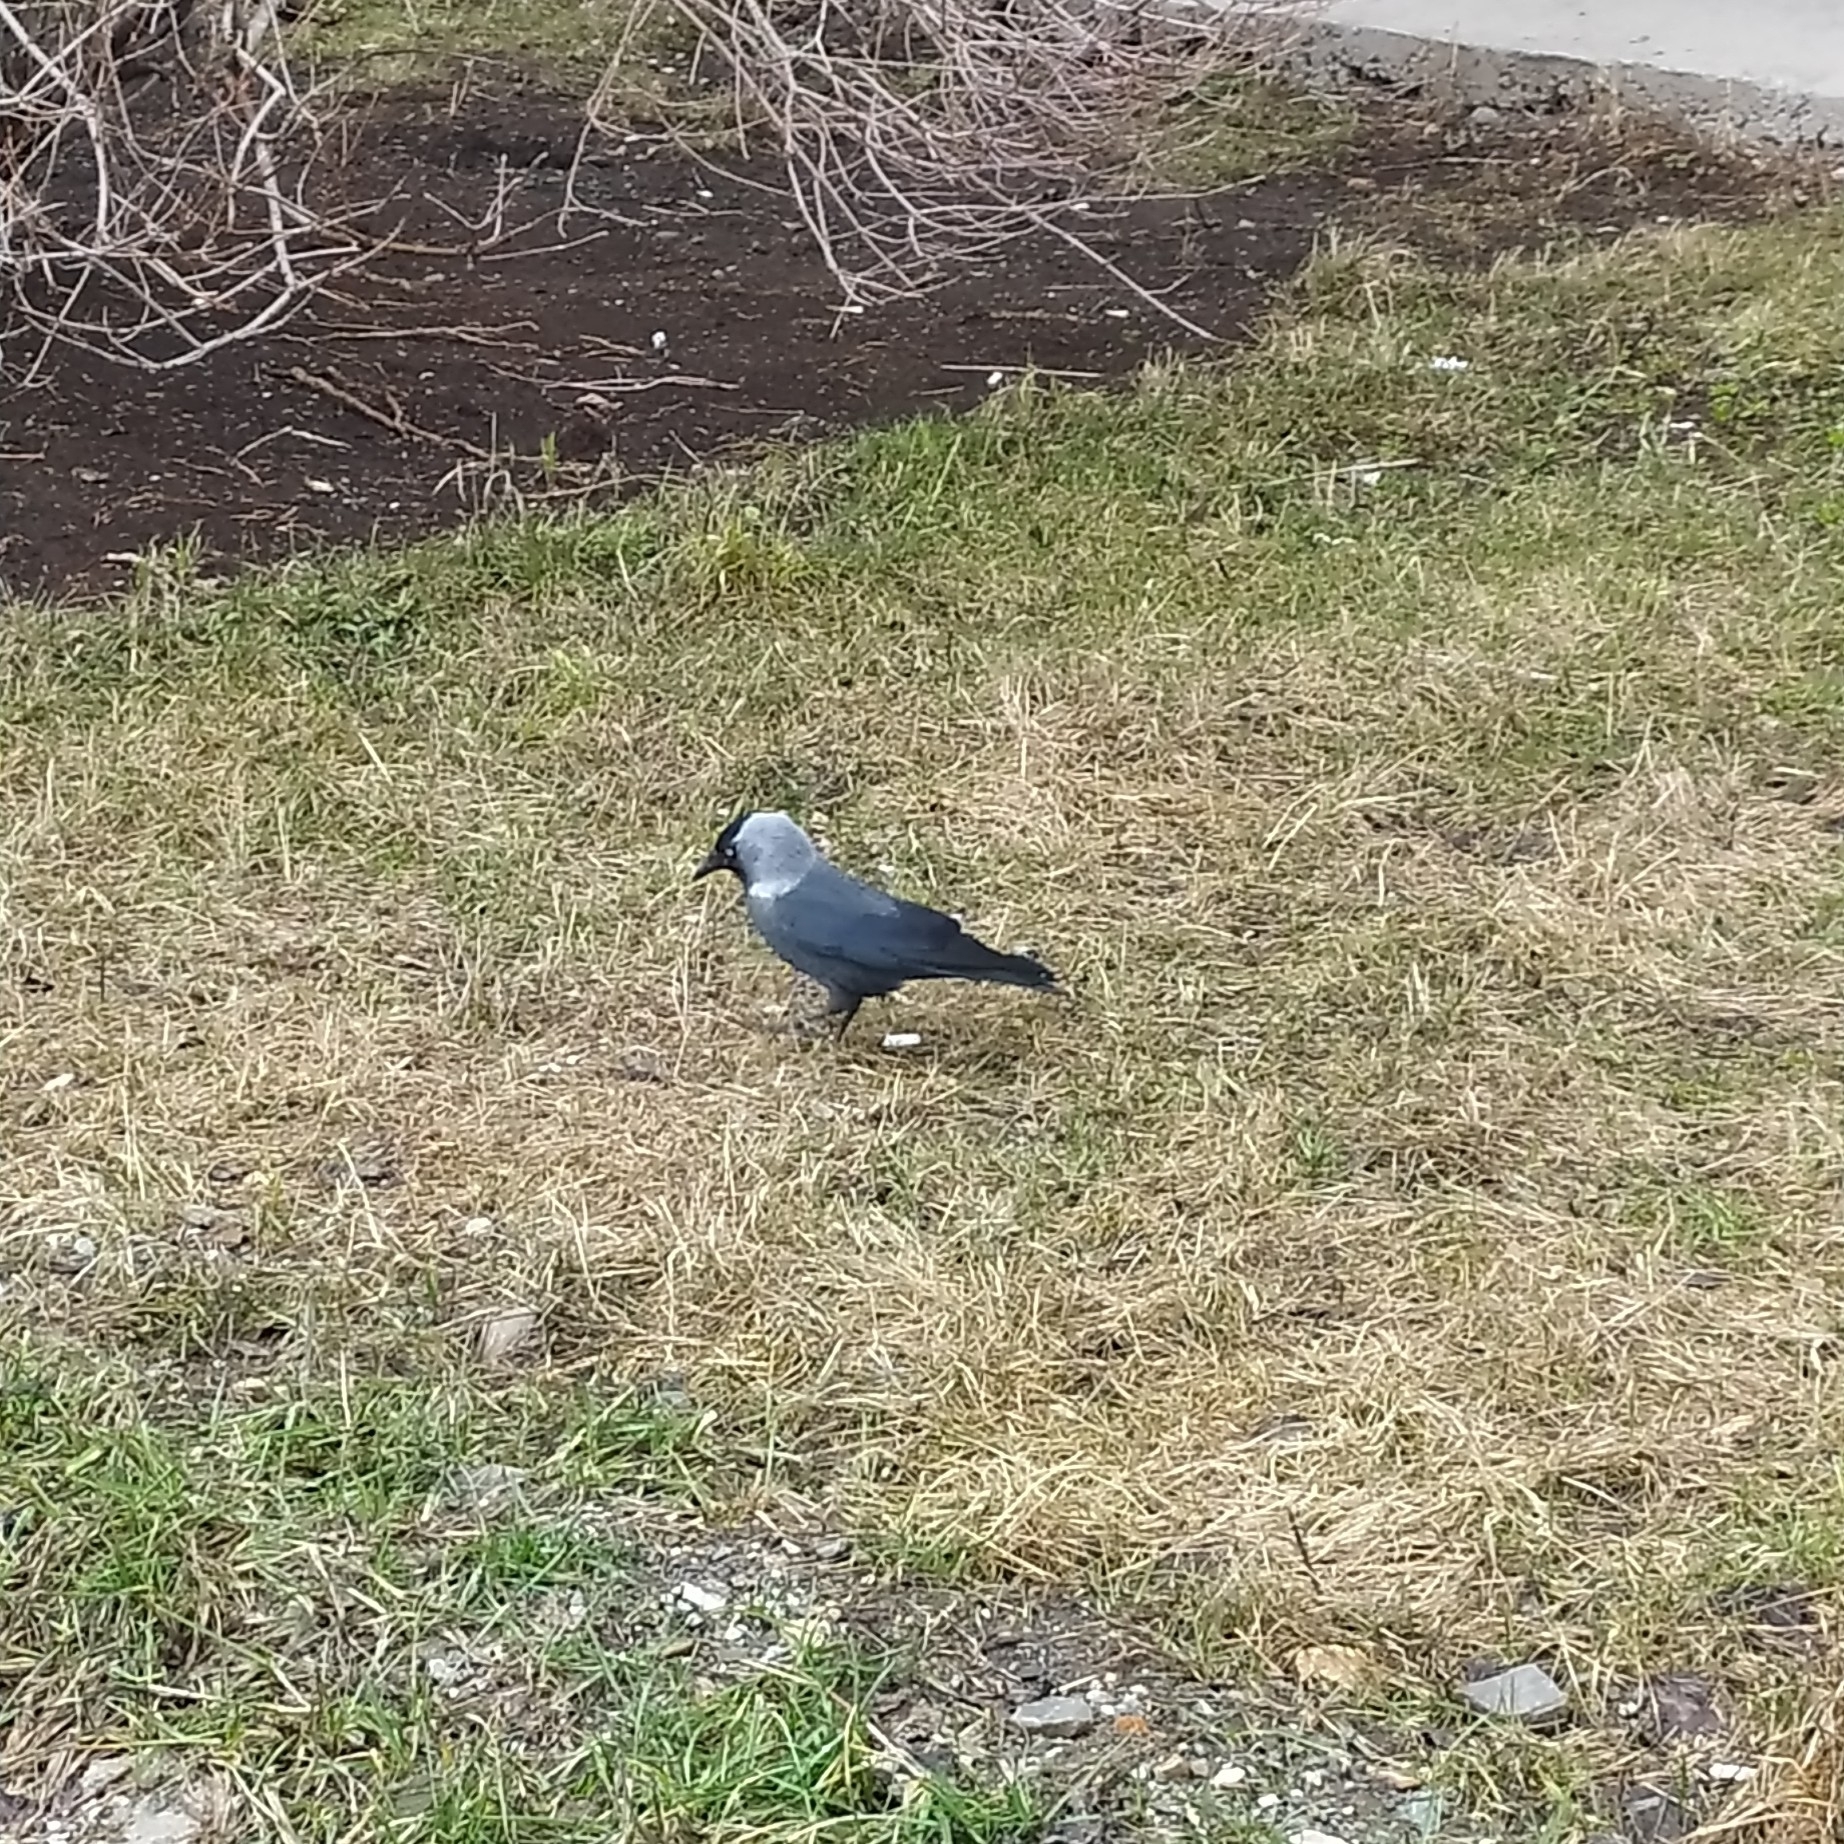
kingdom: Animalia
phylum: Chordata
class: Aves
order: Passeriformes
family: Corvidae
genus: Coloeus
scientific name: Coloeus monedula
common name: Western jackdaw
